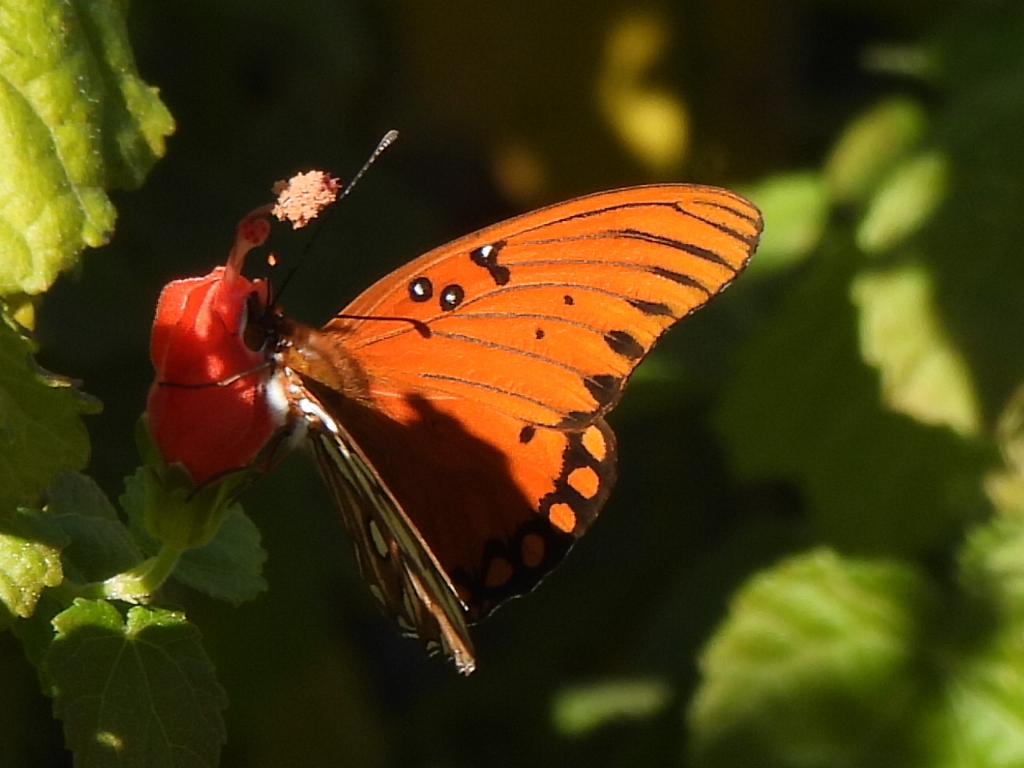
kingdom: Animalia
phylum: Arthropoda
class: Insecta
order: Lepidoptera
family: Nymphalidae
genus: Dione
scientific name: Dione vanillae
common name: Gulf fritillary
